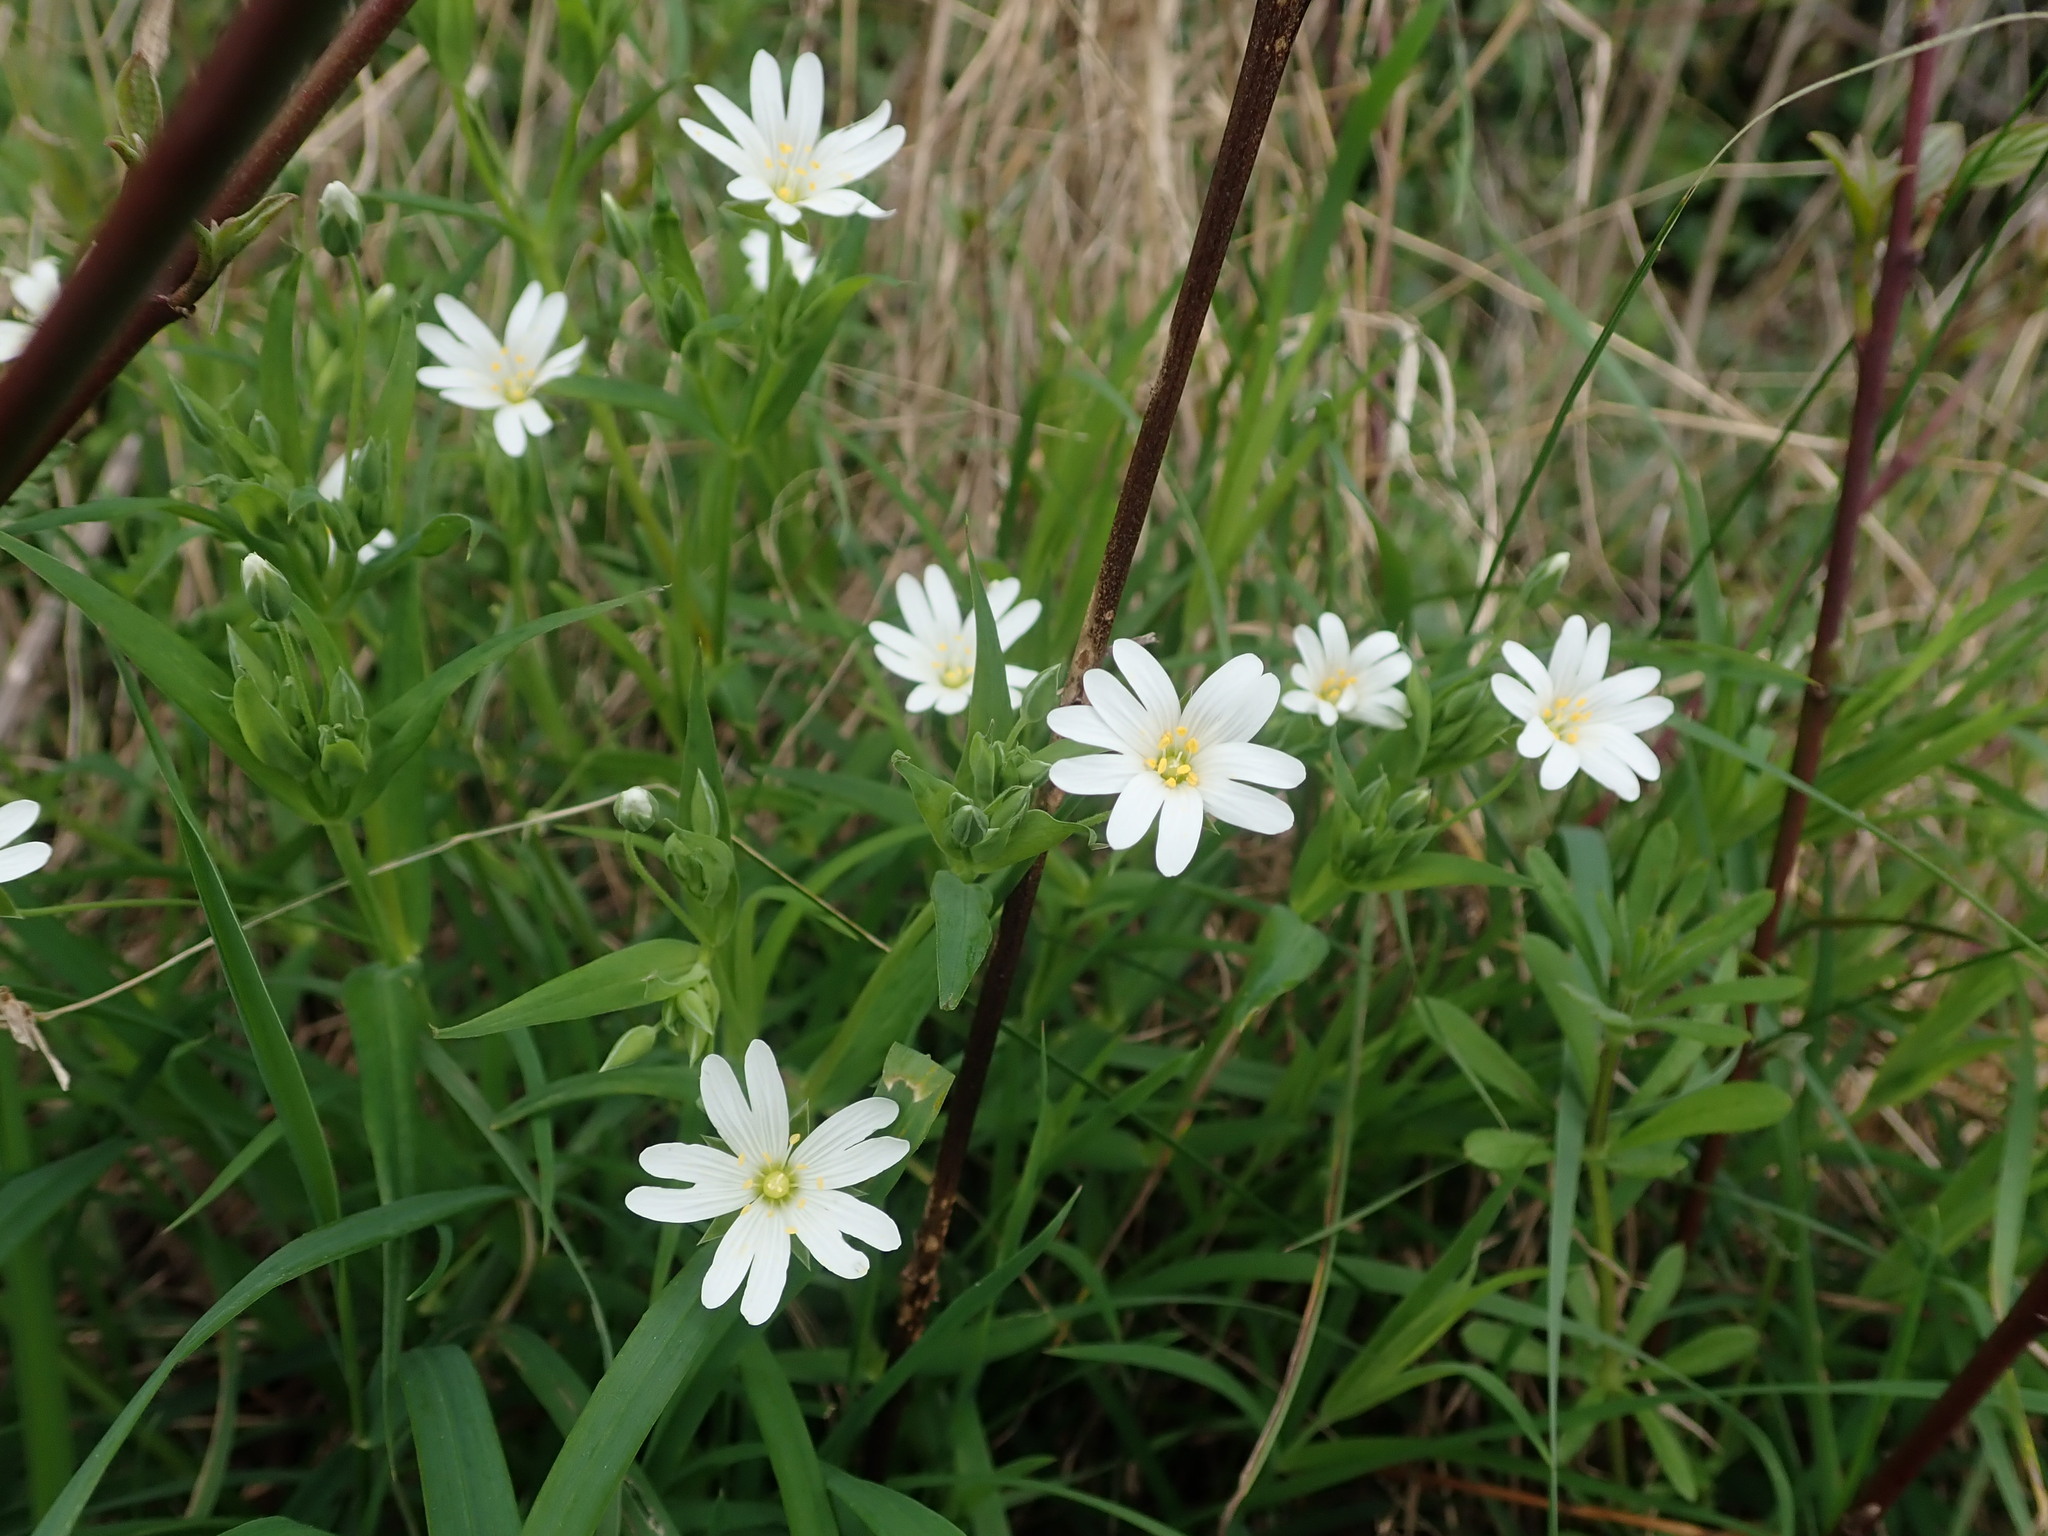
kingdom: Plantae
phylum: Tracheophyta
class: Magnoliopsida
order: Caryophyllales
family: Caryophyllaceae
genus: Rabelera
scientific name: Rabelera holostea
